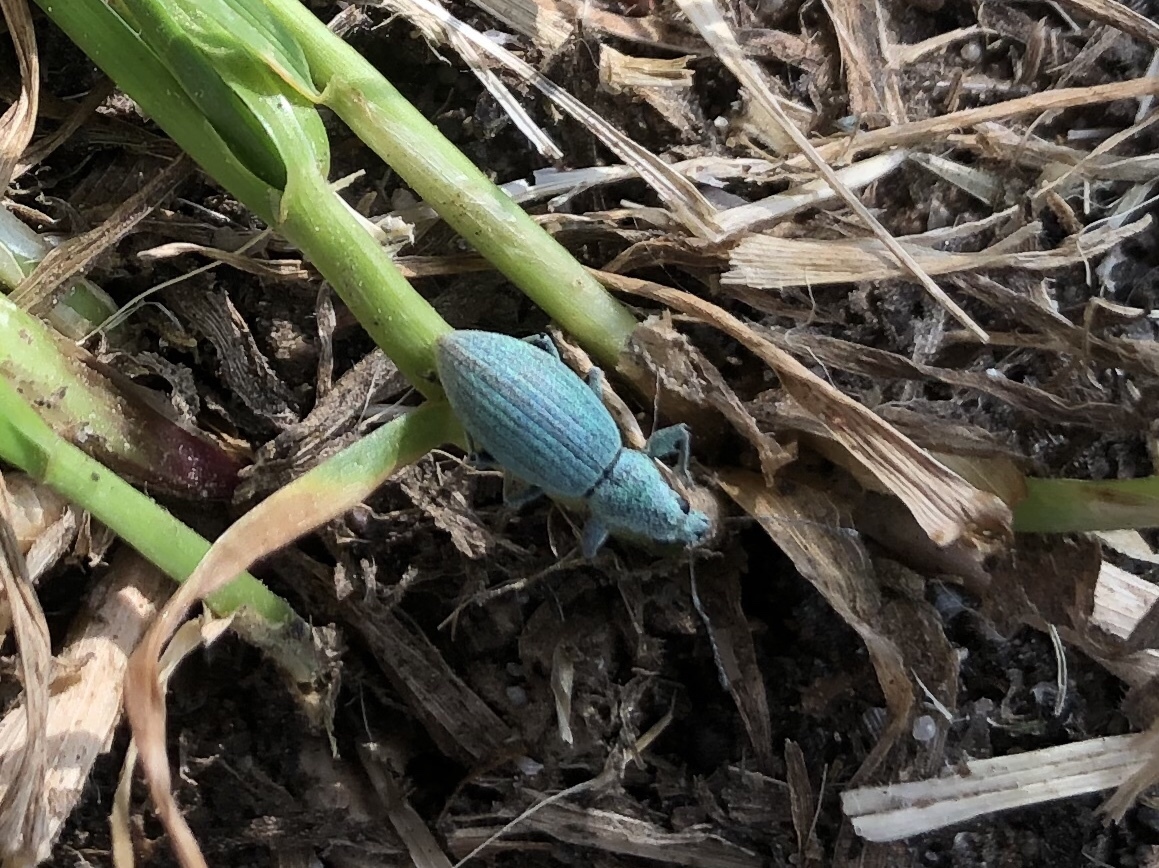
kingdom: Animalia
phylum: Arthropoda
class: Insecta
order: Coleoptera
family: Curculionidae
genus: Eusomus
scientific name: Eusomus ovulum
